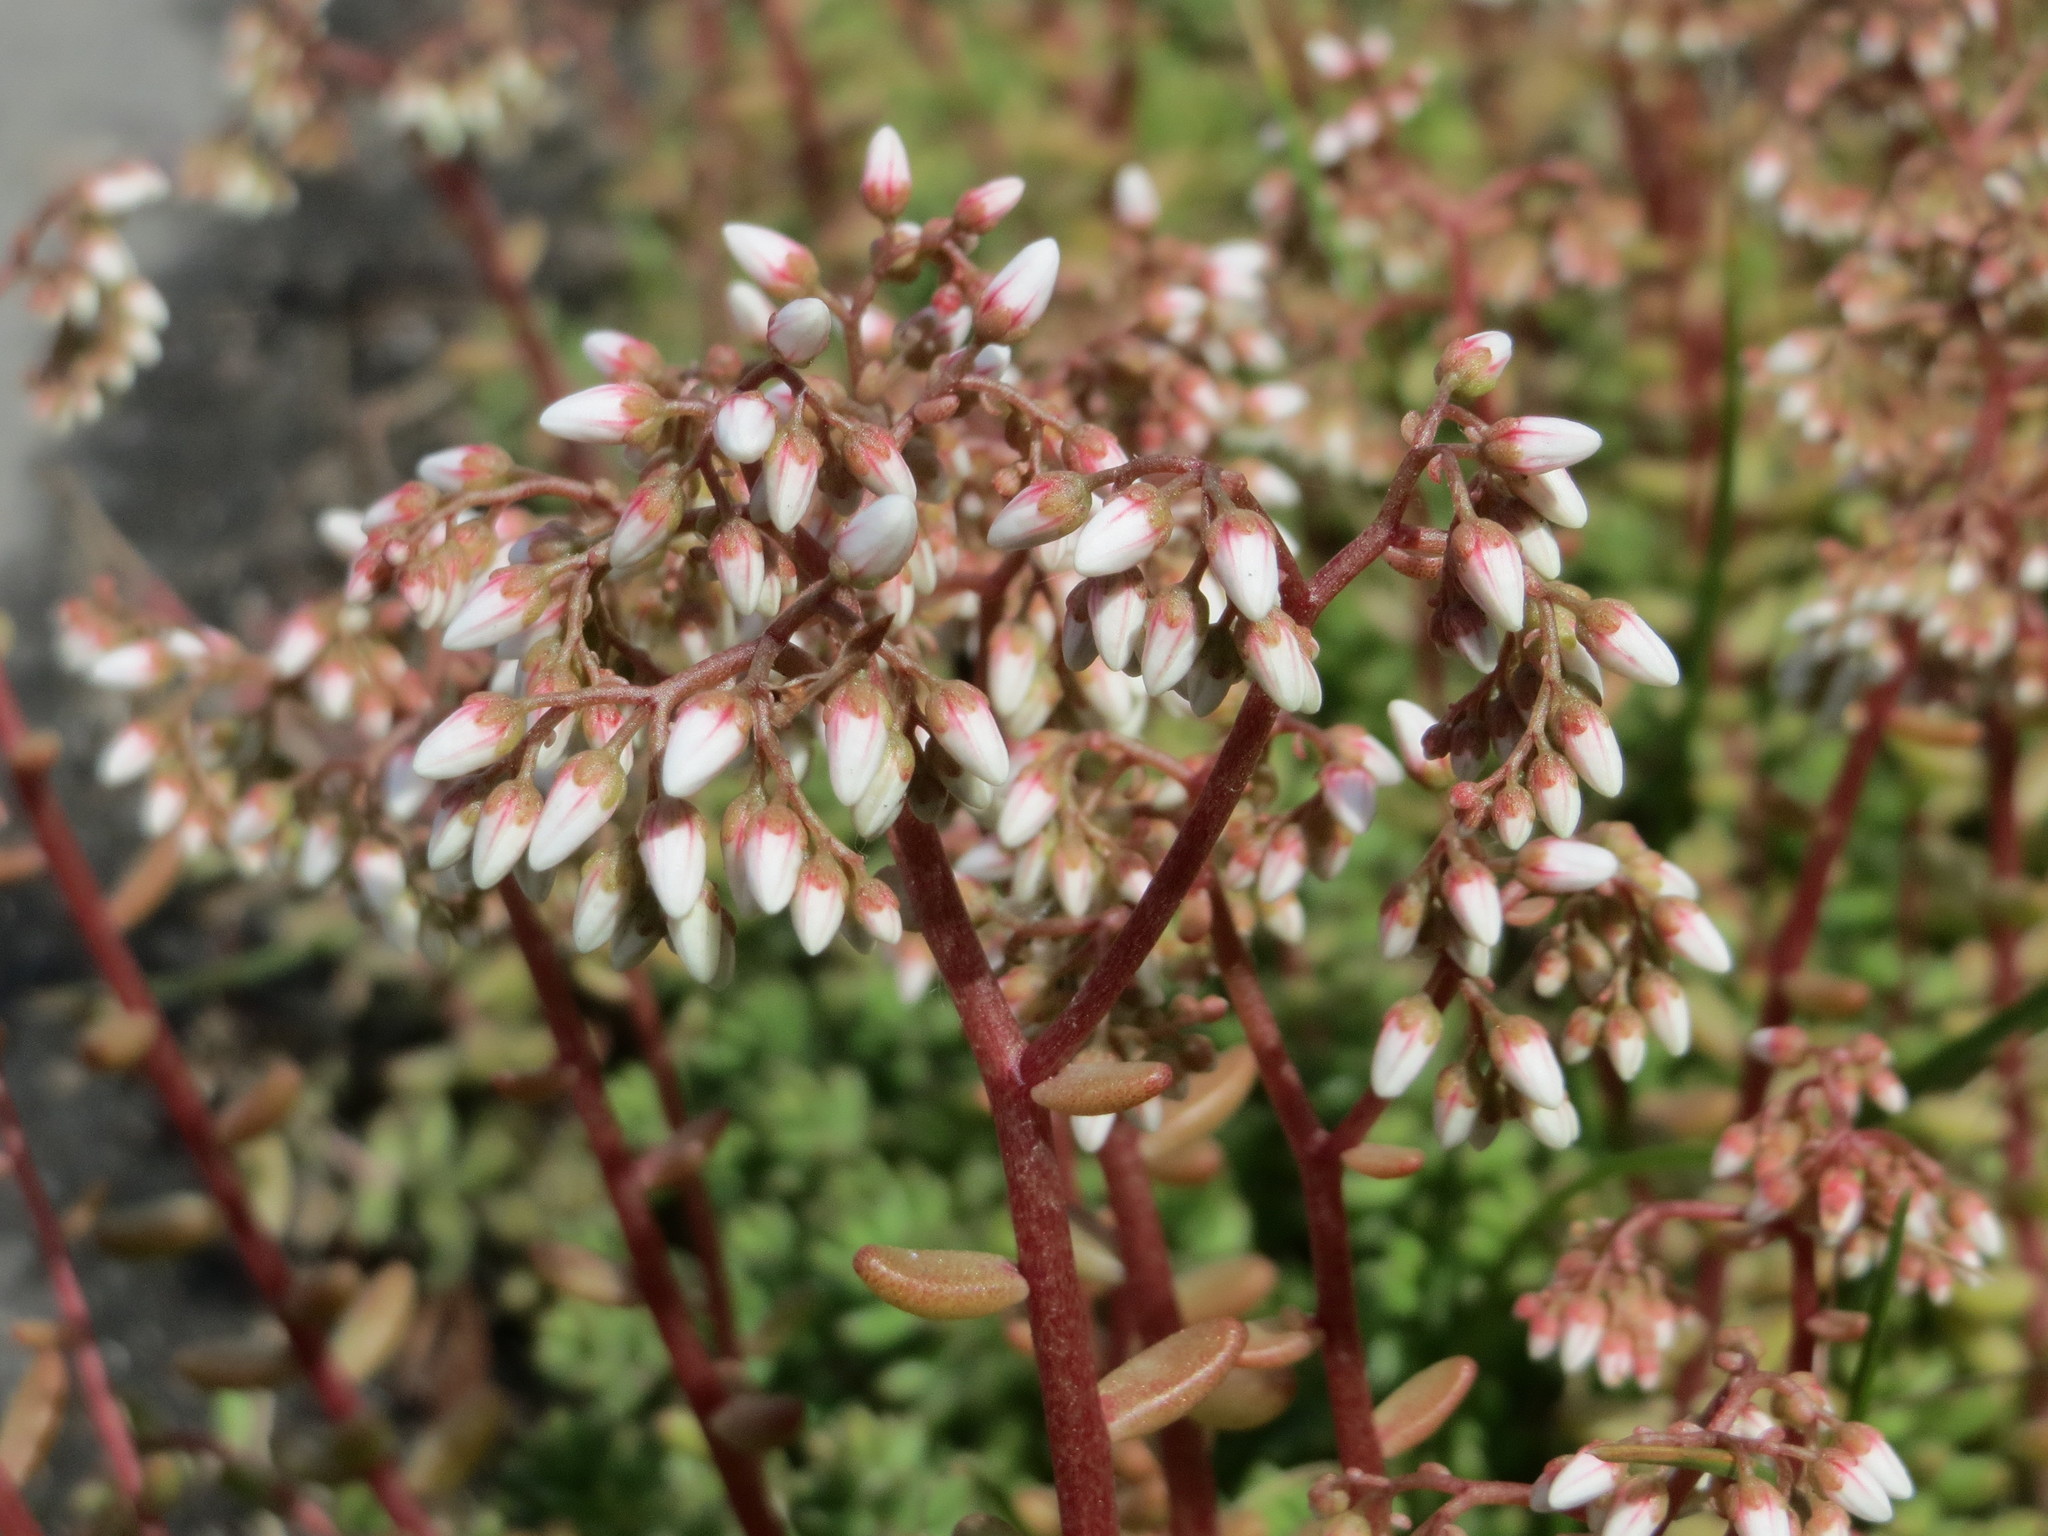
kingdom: Plantae
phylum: Tracheophyta
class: Magnoliopsida
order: Saxifragales
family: Crassulaceae
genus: Sedum
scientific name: Sedum album
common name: White stonecrop
